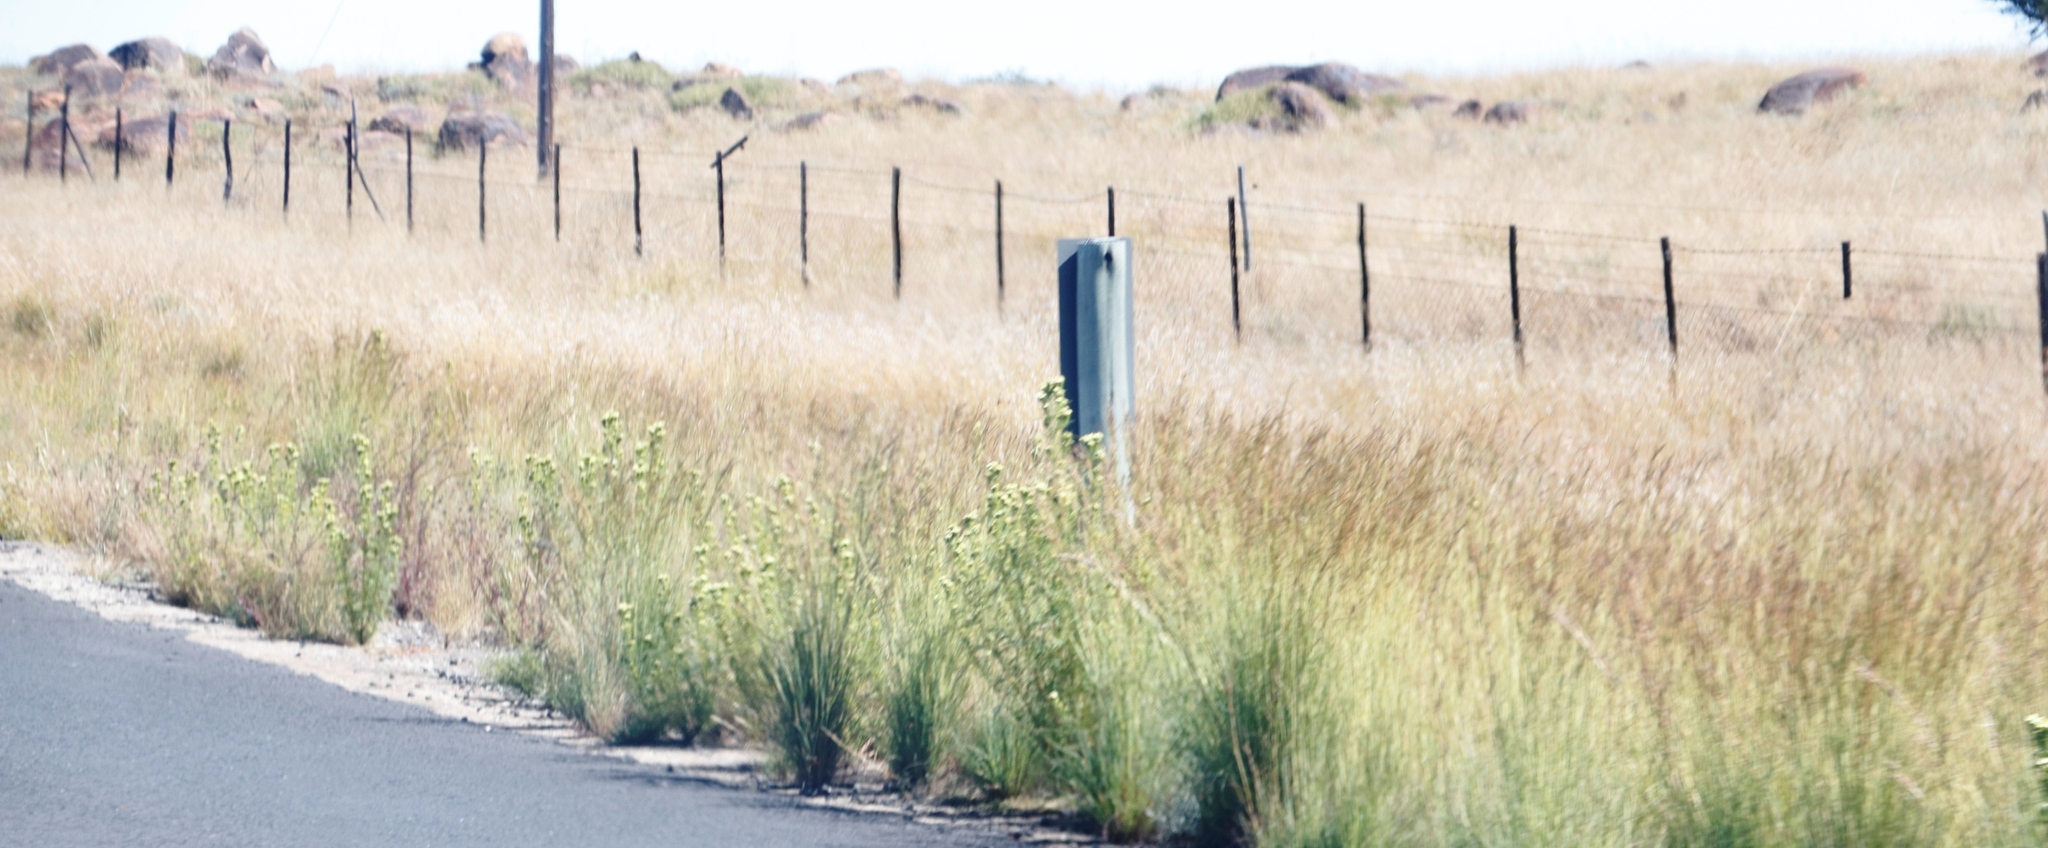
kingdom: Plantae
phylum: Tracheophyta
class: Magnoliopsida
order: Asterales
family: Asteraceae
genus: Tagetes
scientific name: Tagetes minuta
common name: Muster john henry
